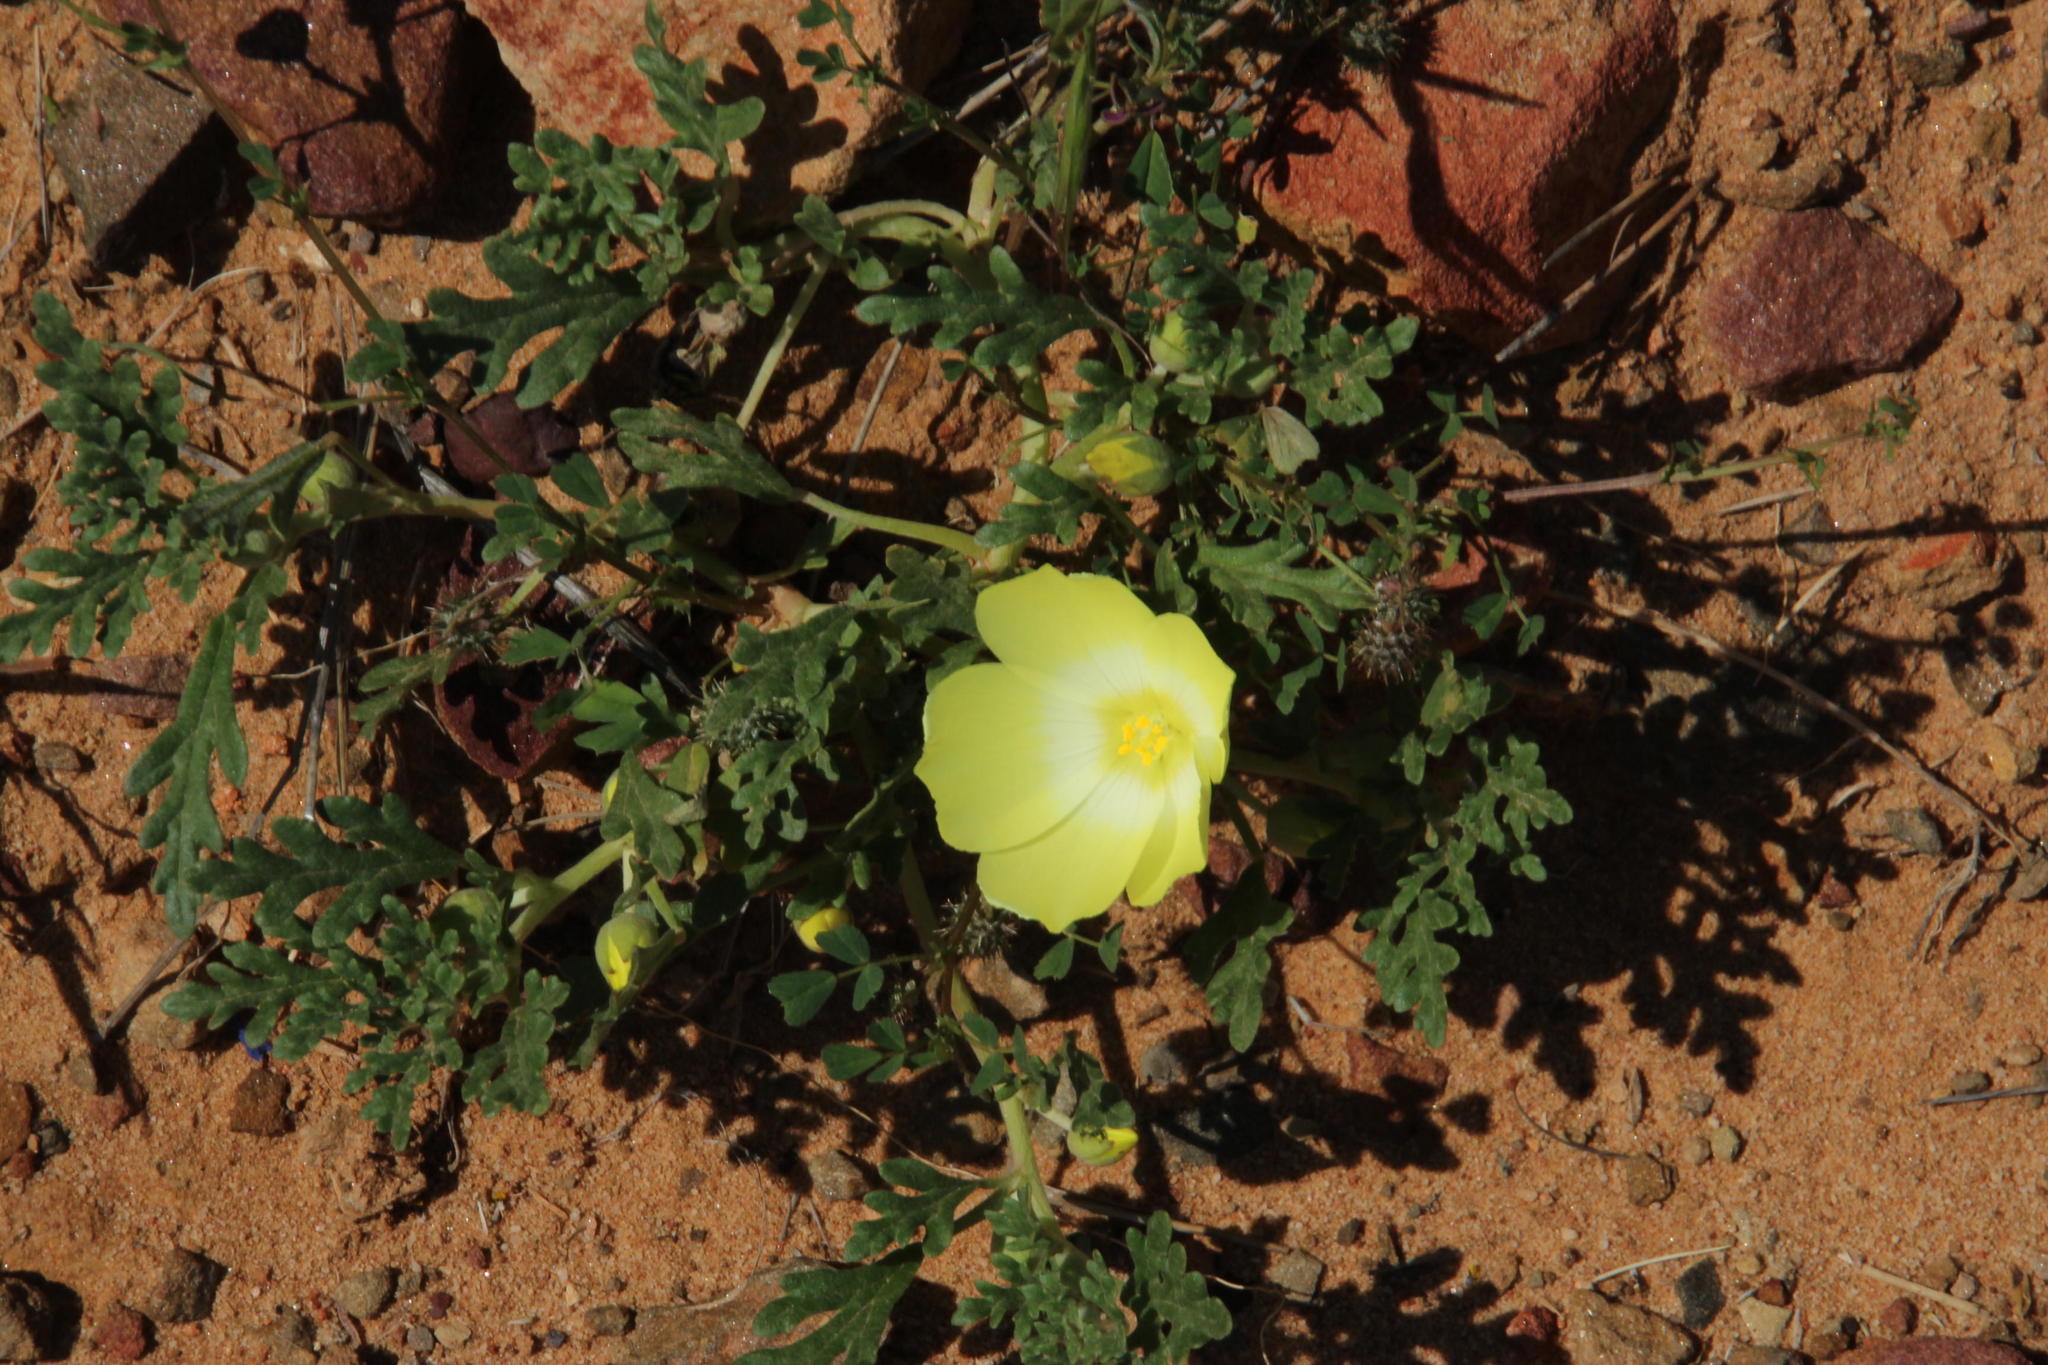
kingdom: Plantae
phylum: Tracheophyta
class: Magnoliopsida
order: Malvales
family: Neuradaceae
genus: Grielum
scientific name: Grielum humifusum
